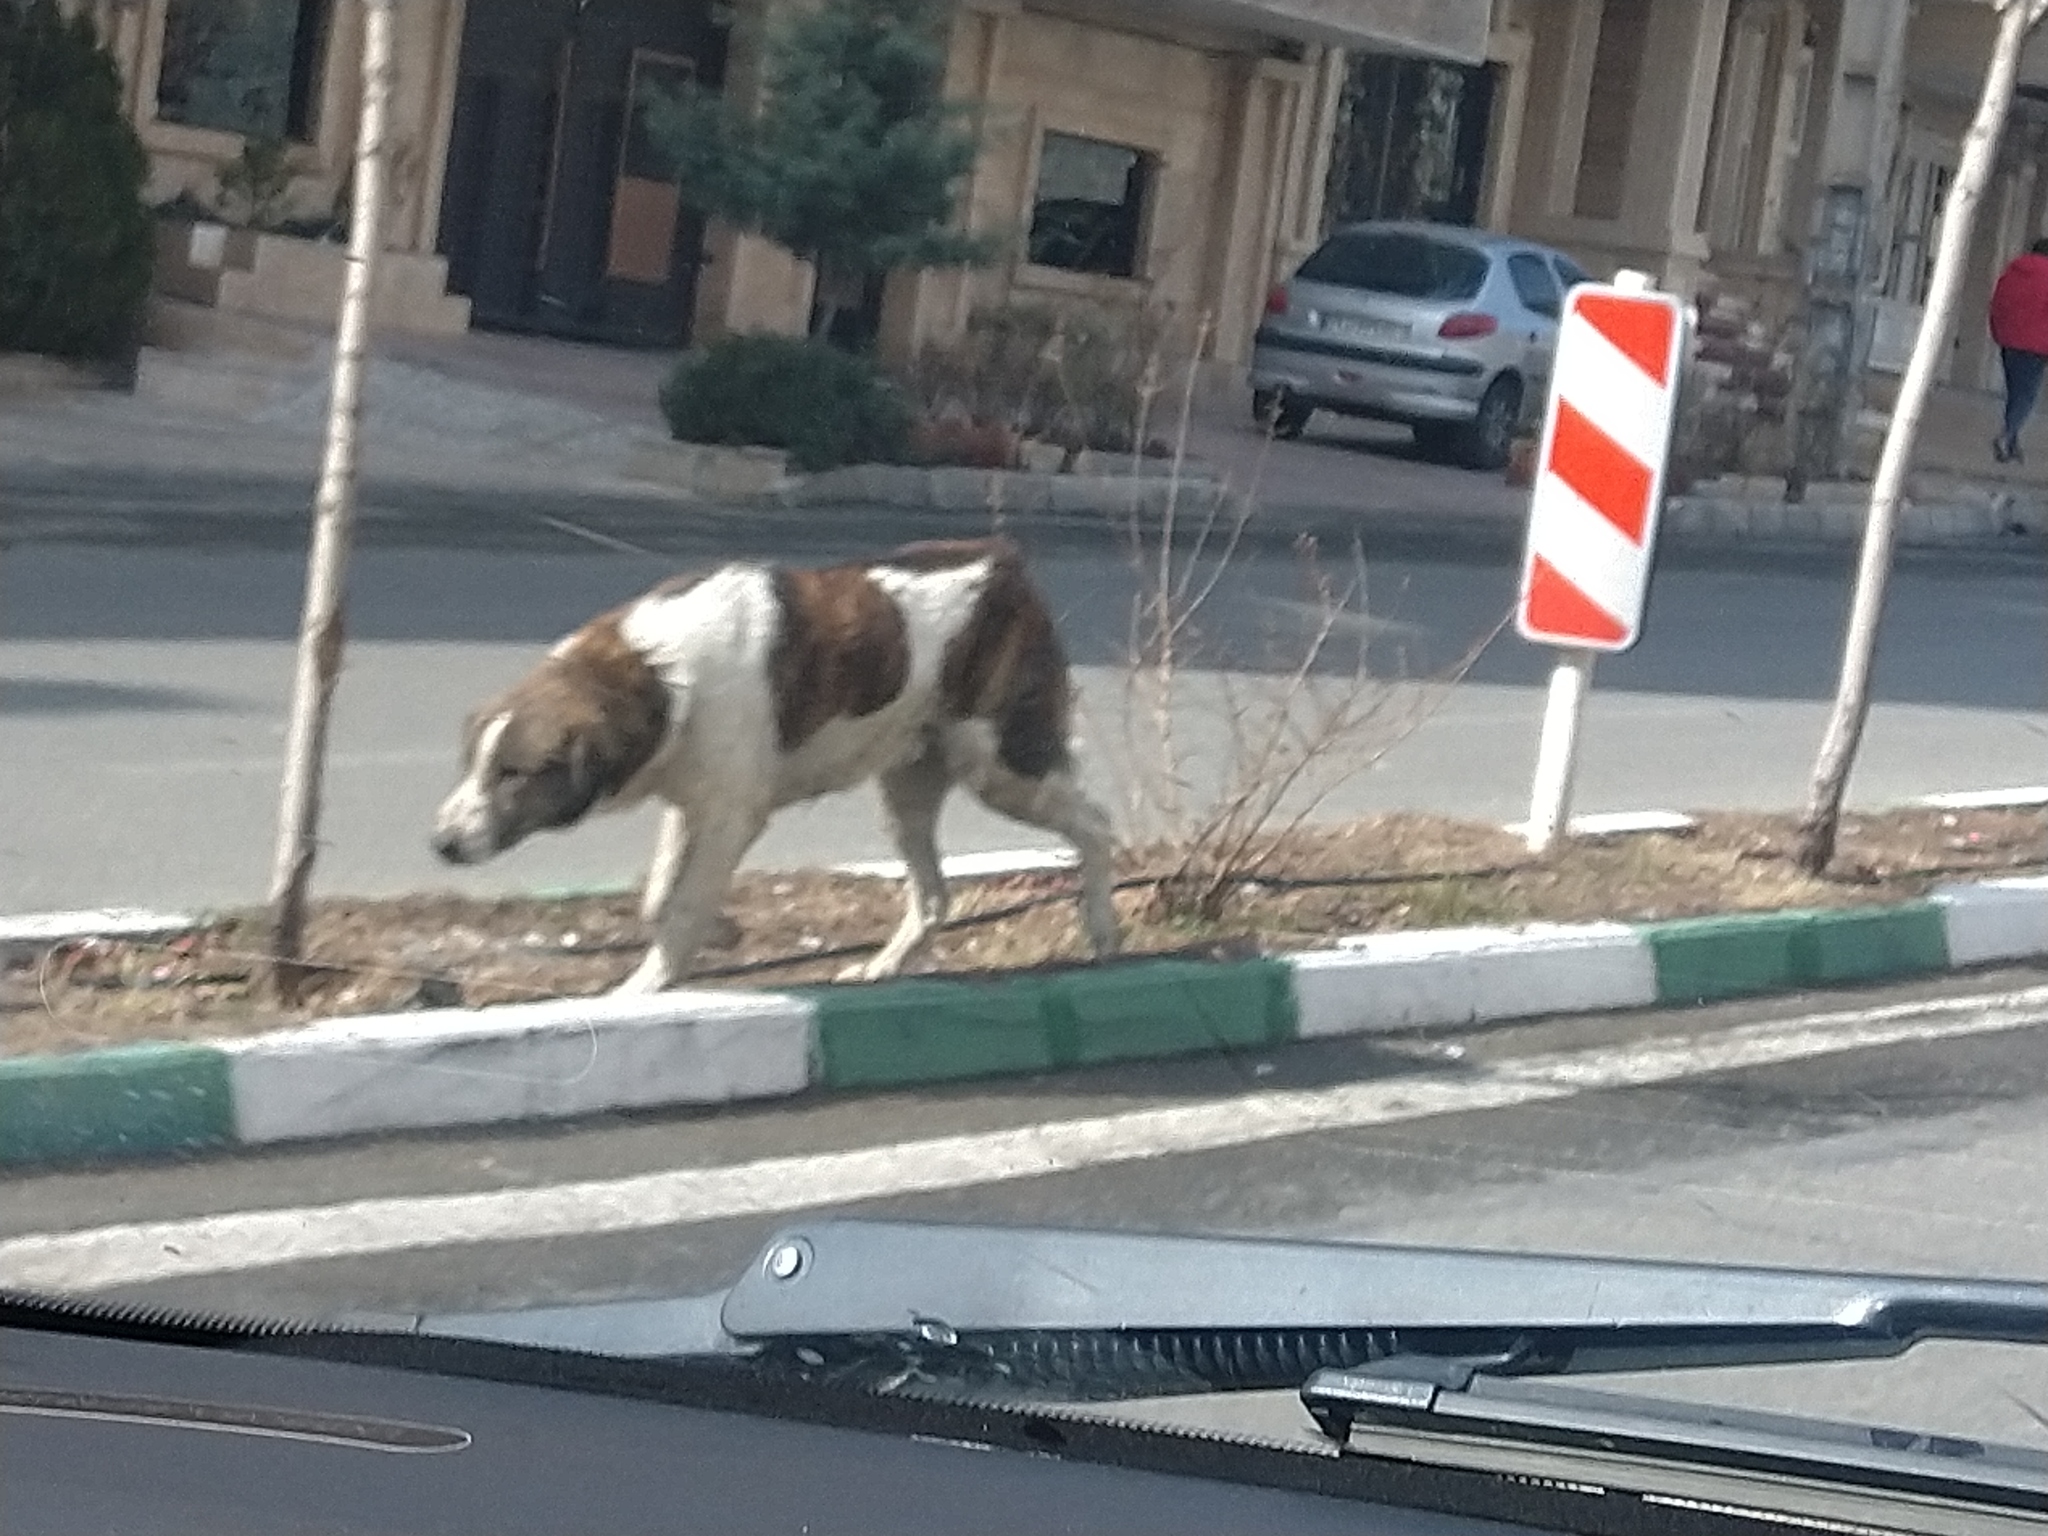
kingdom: Animalia
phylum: Chordata
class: Mammalia
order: Carnivora
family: Canidae
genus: Canis
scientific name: Canis lupus
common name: Gray wolf
